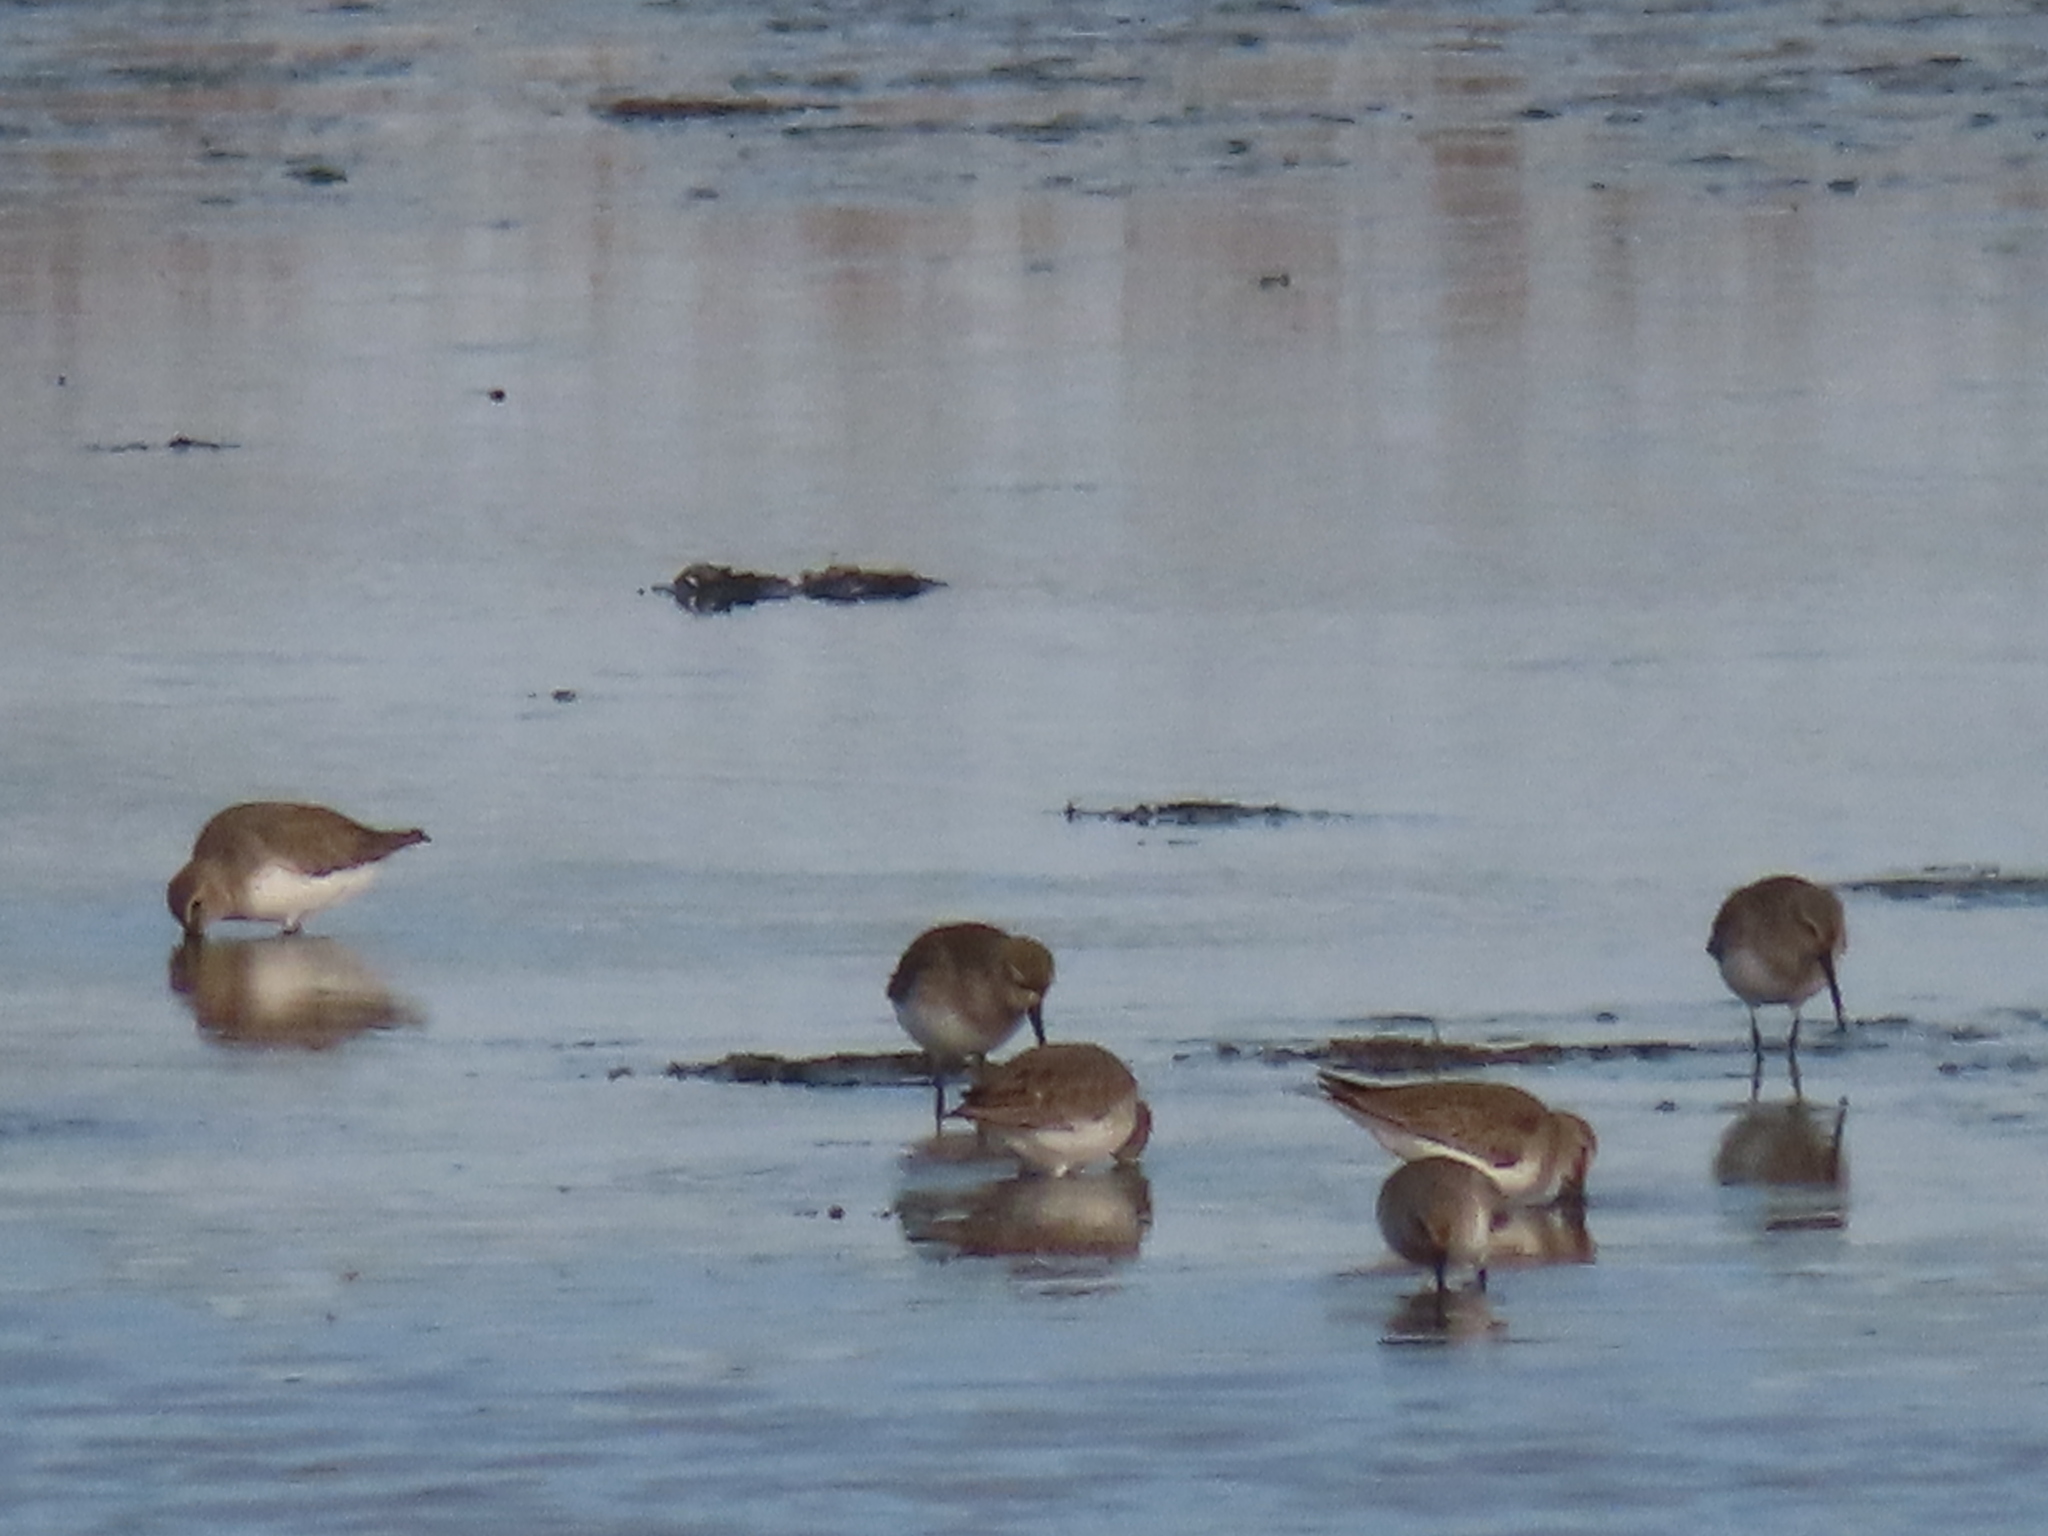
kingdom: Animalia
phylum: Chordata
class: Aves
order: Charadriiformes
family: Scolopacidae
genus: Calidris
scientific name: Calidris alpina
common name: Dunlin
